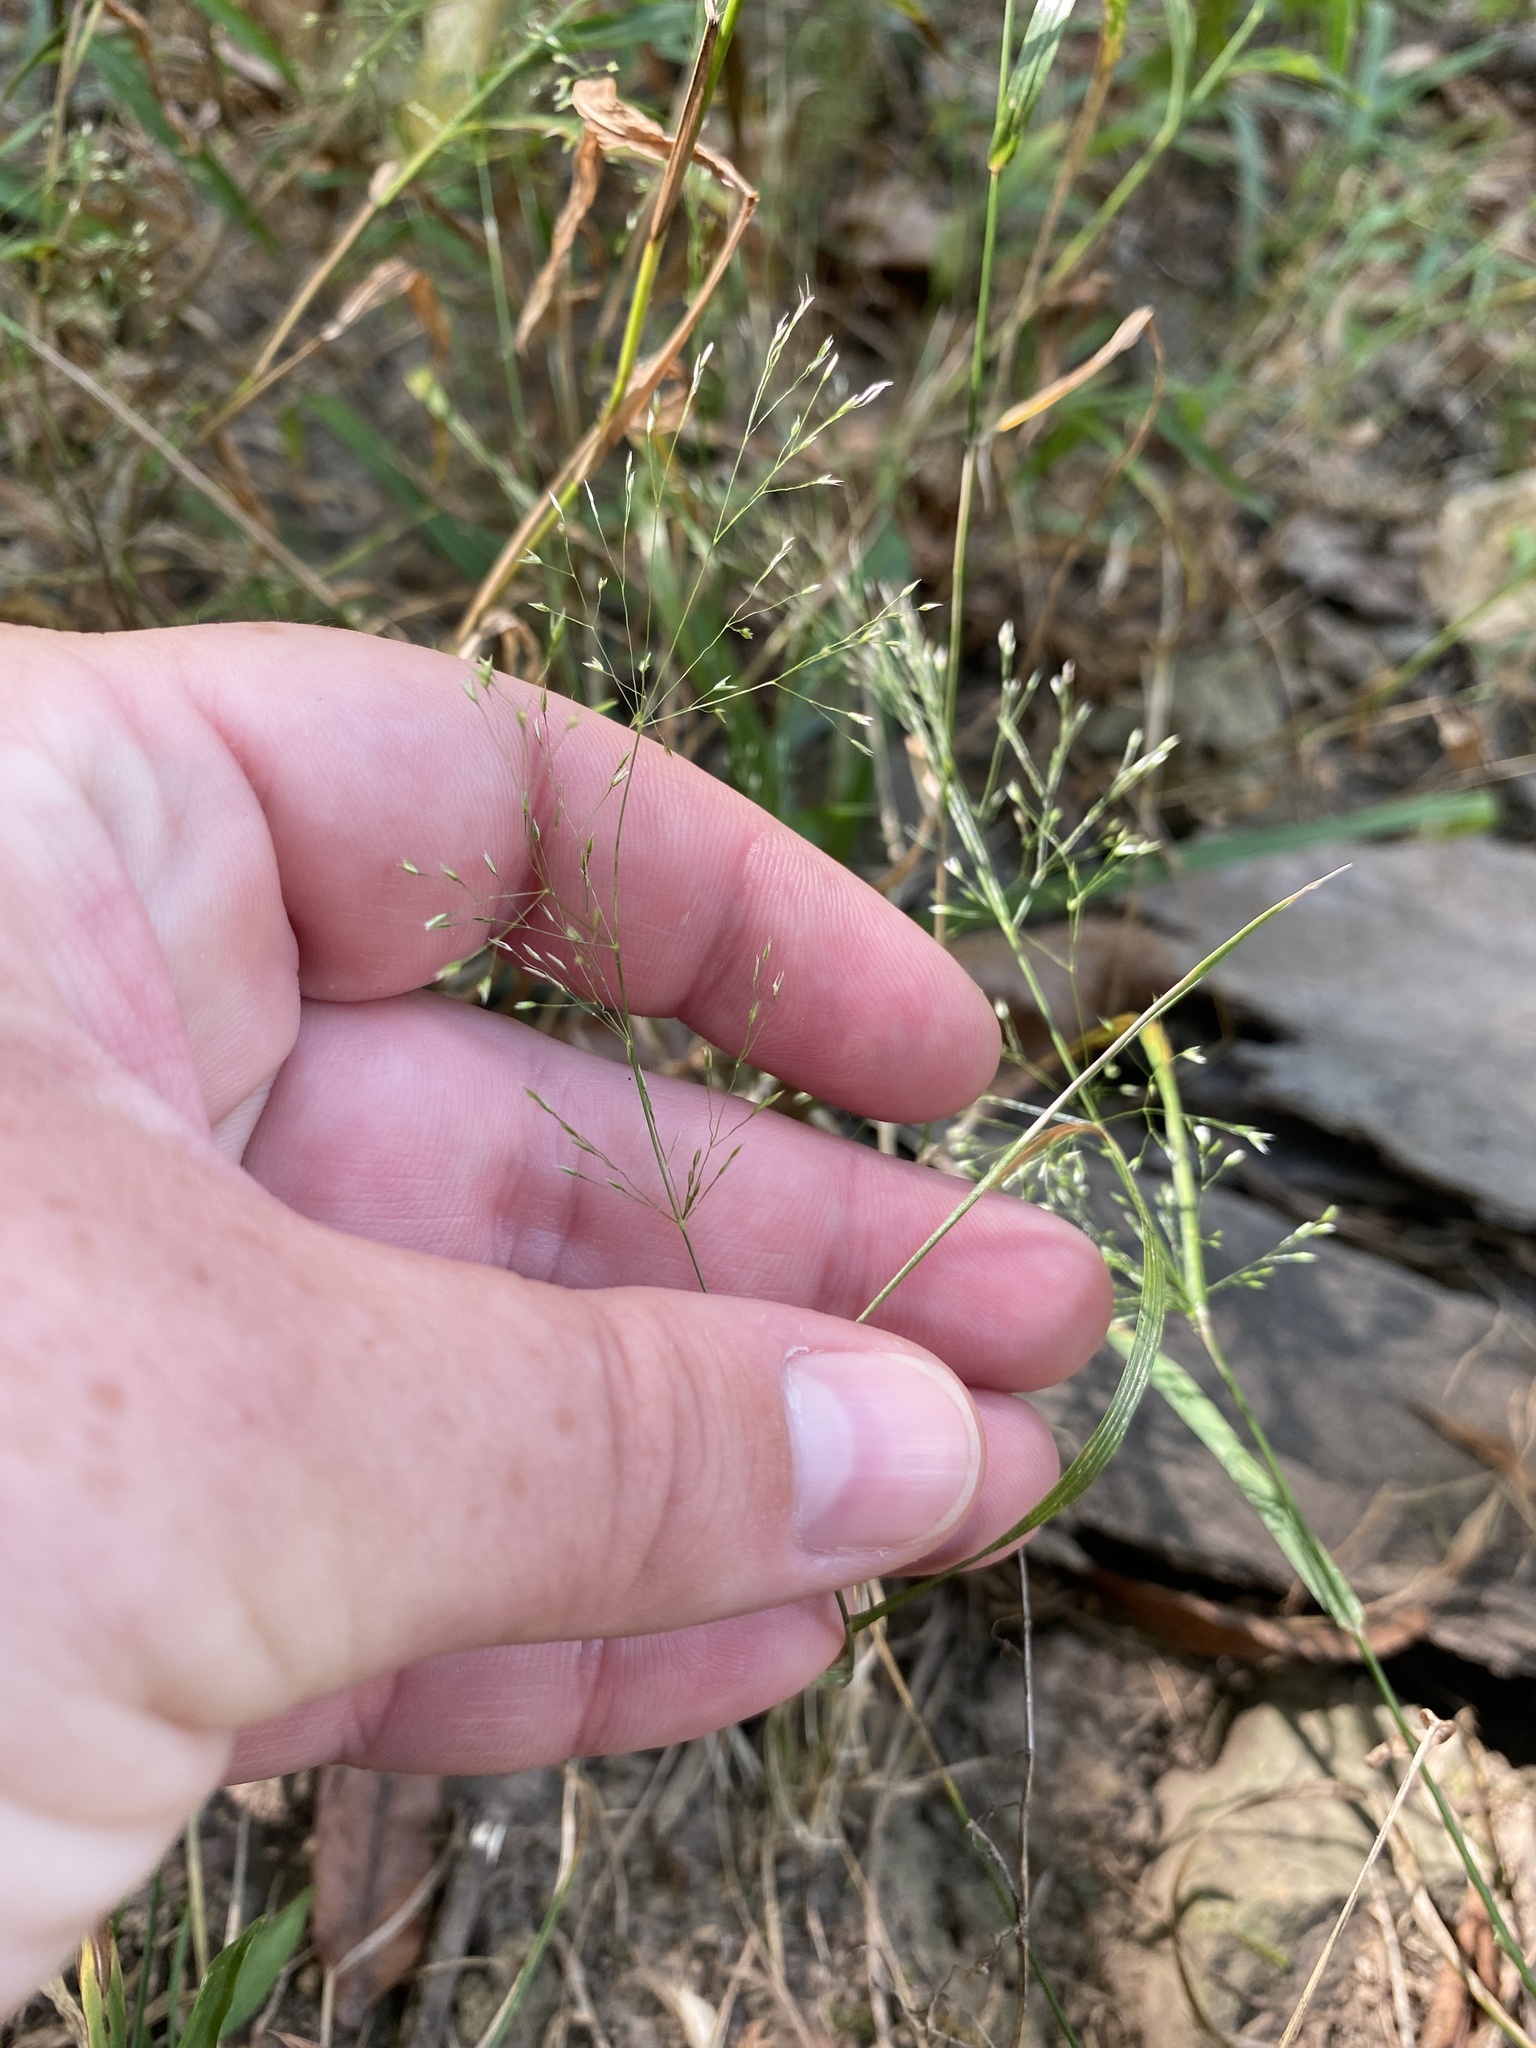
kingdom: Plantae
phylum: Tracheophyta
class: Liliopsida
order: Poales
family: Poaceae
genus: Agrostis
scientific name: Agrostis perennans
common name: Autumn bent
